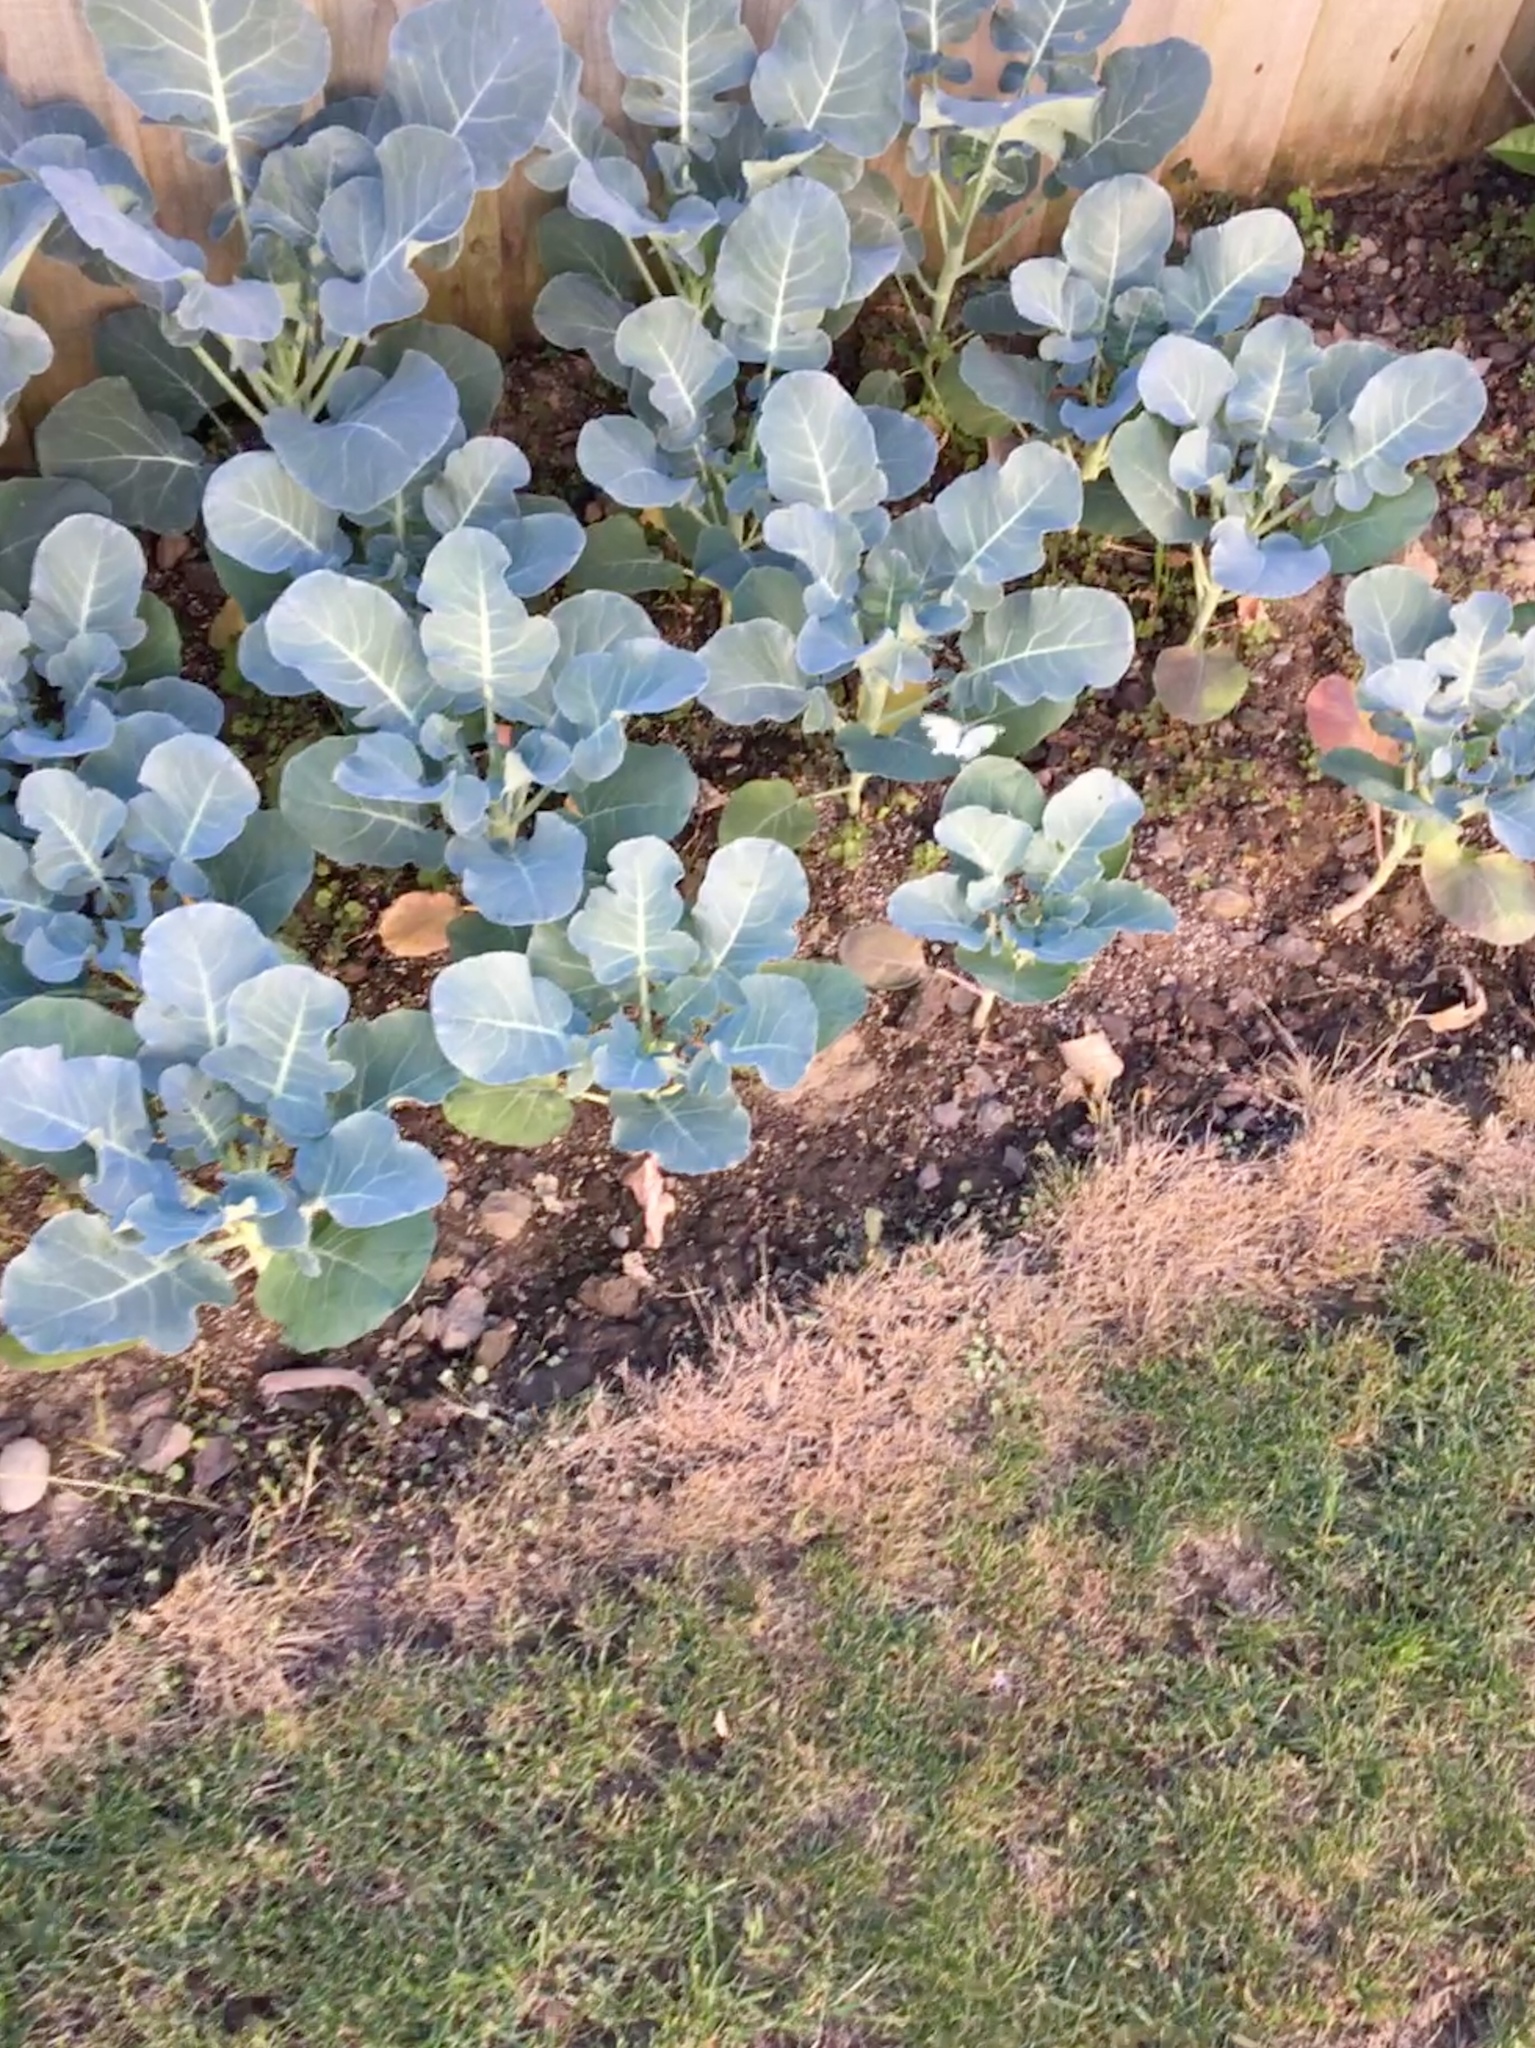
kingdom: Animalia
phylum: Arthropoda
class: Insecta
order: Lepidoptera
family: Pieridae
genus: Pieris
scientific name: Pieris rapae
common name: Small white
